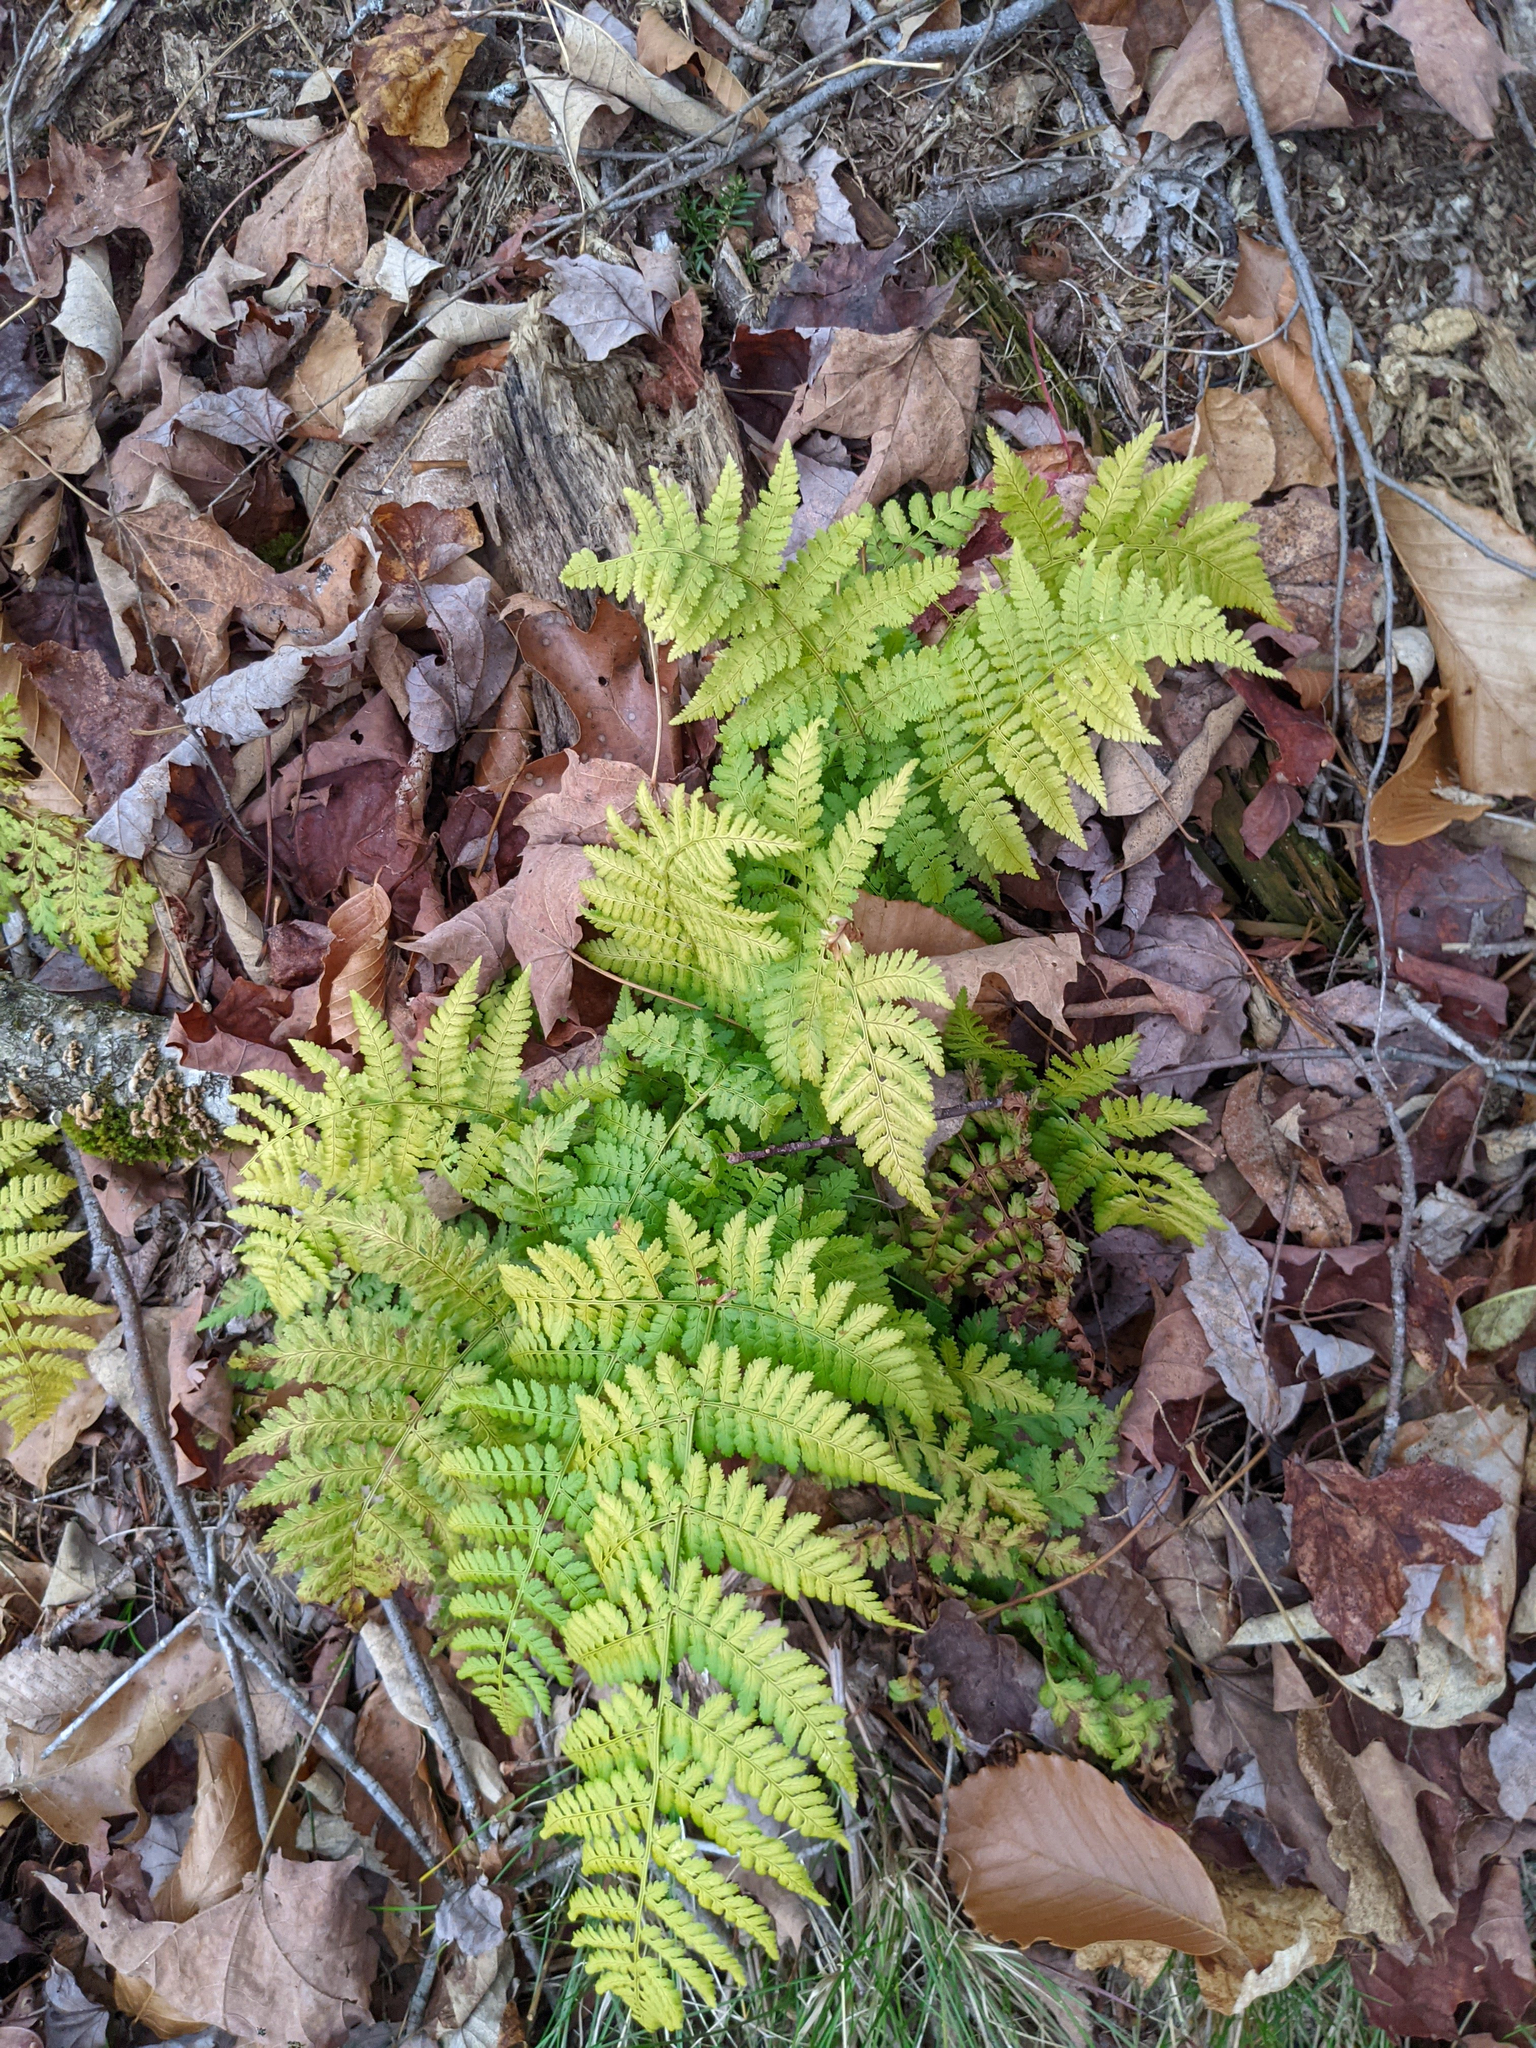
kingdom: Plantae
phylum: Tracheophyta
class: Polypodiopsida
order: Polypodiales
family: Dryopteridaceae
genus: Dryopteris
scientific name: Dryopteris intermedia
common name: Evergreen wood fern
